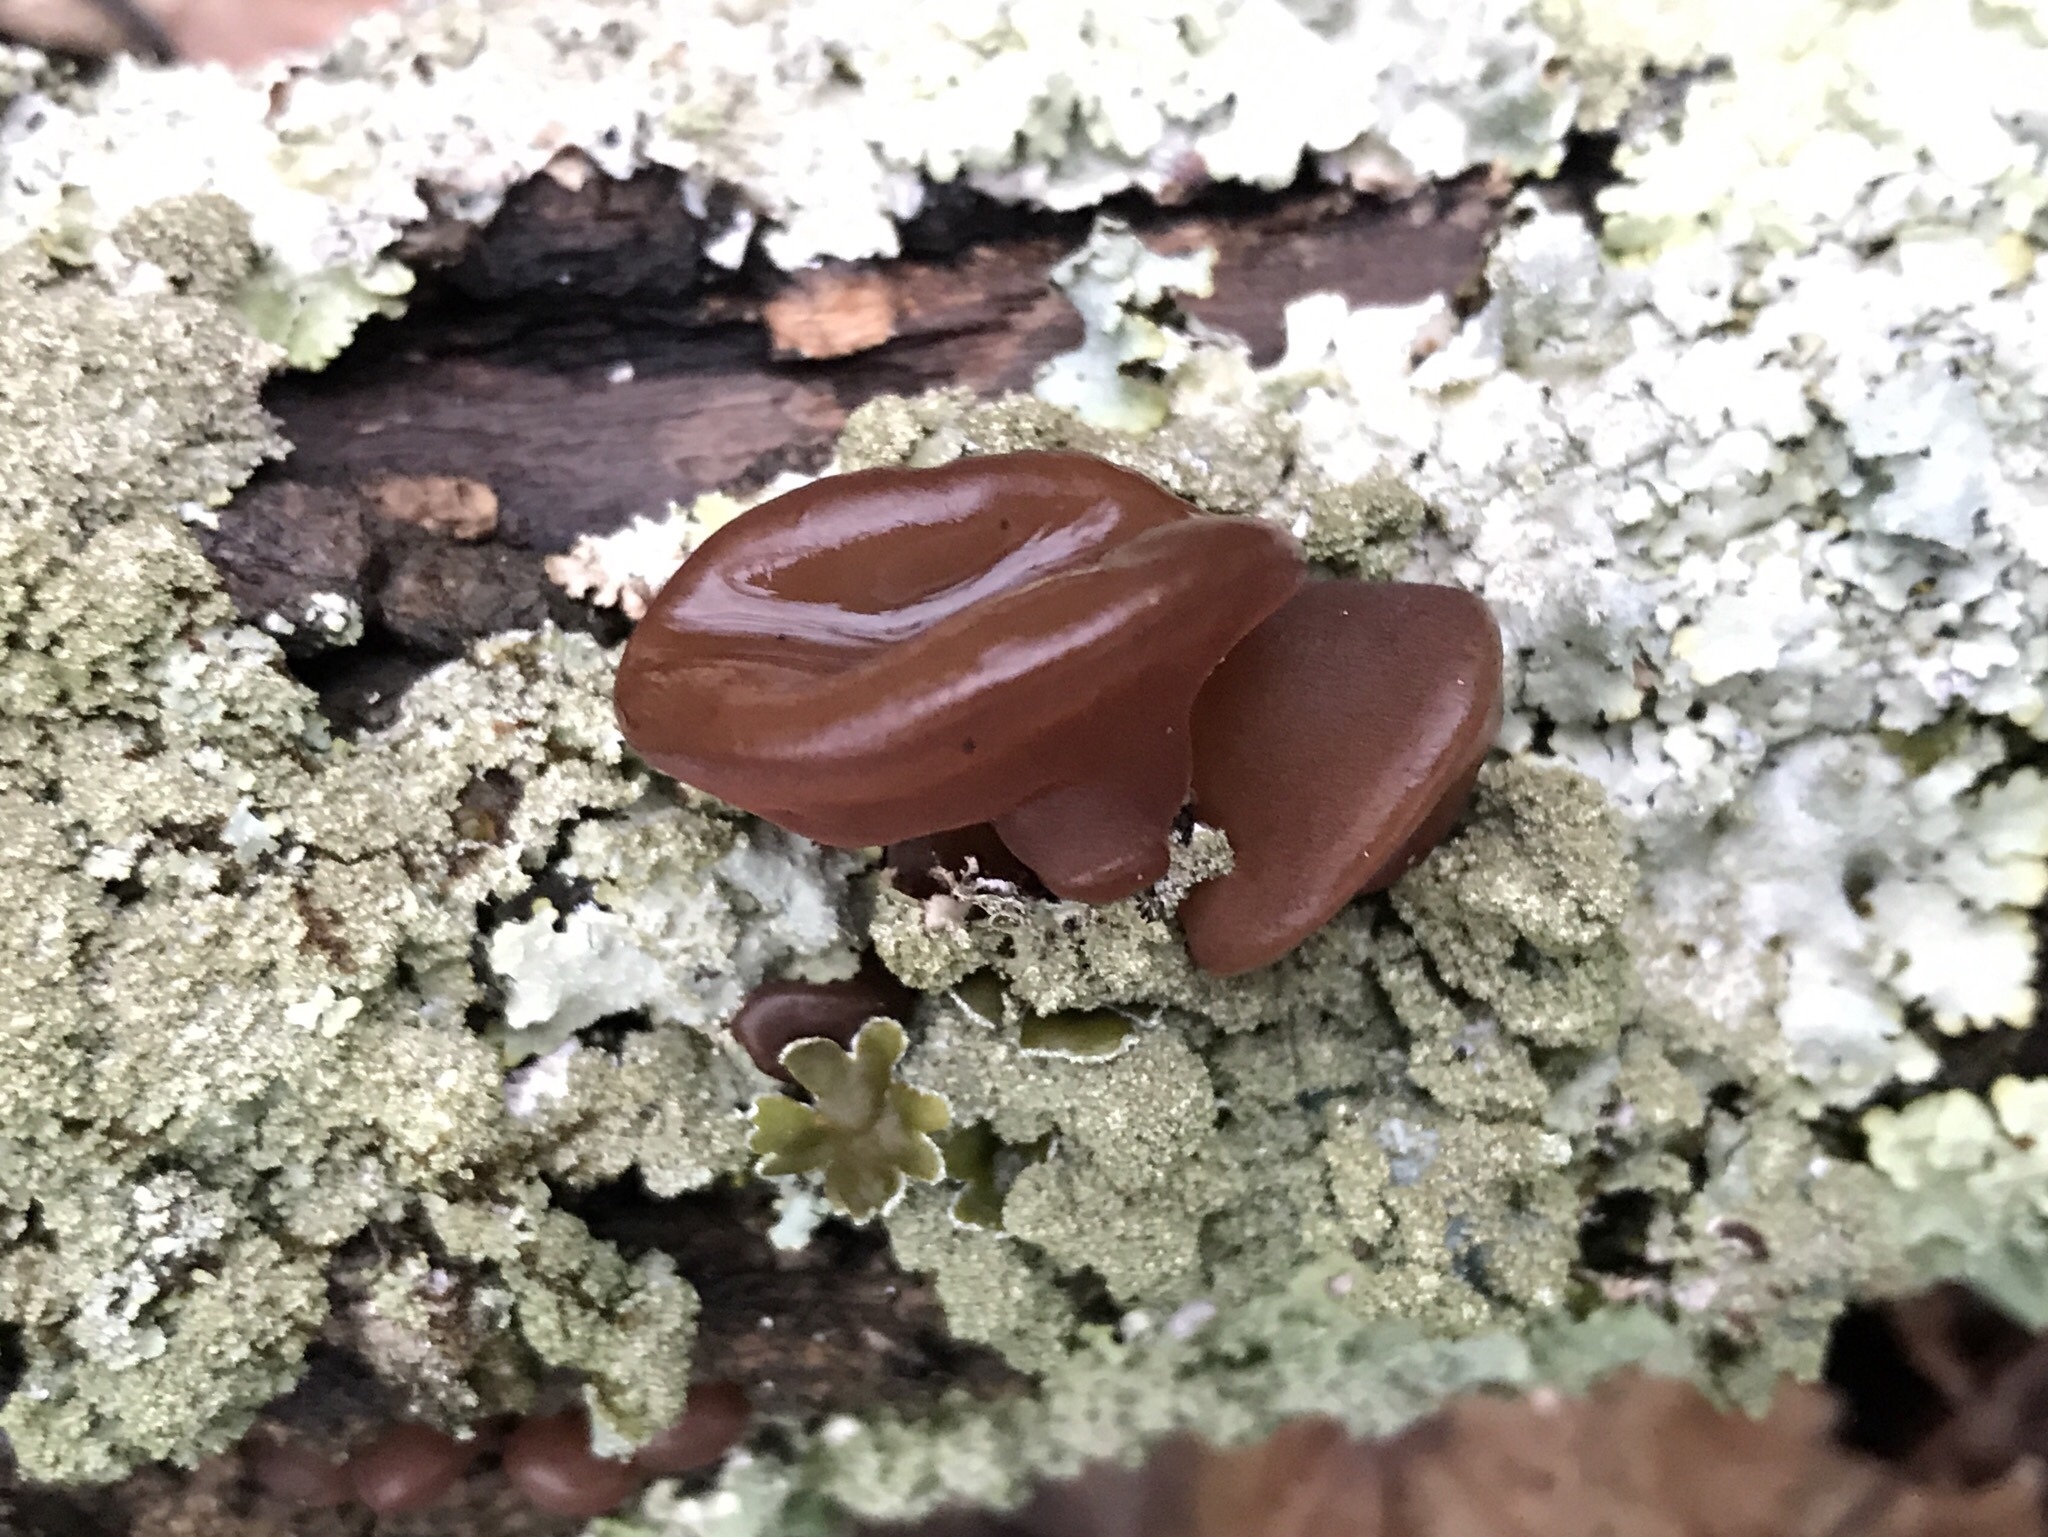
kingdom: Fungi
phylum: Basidiomycota
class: Agaricomycetes
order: Auriculariales
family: Auriculariaceae
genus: Auricularia
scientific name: Auricularia angiospermarum
